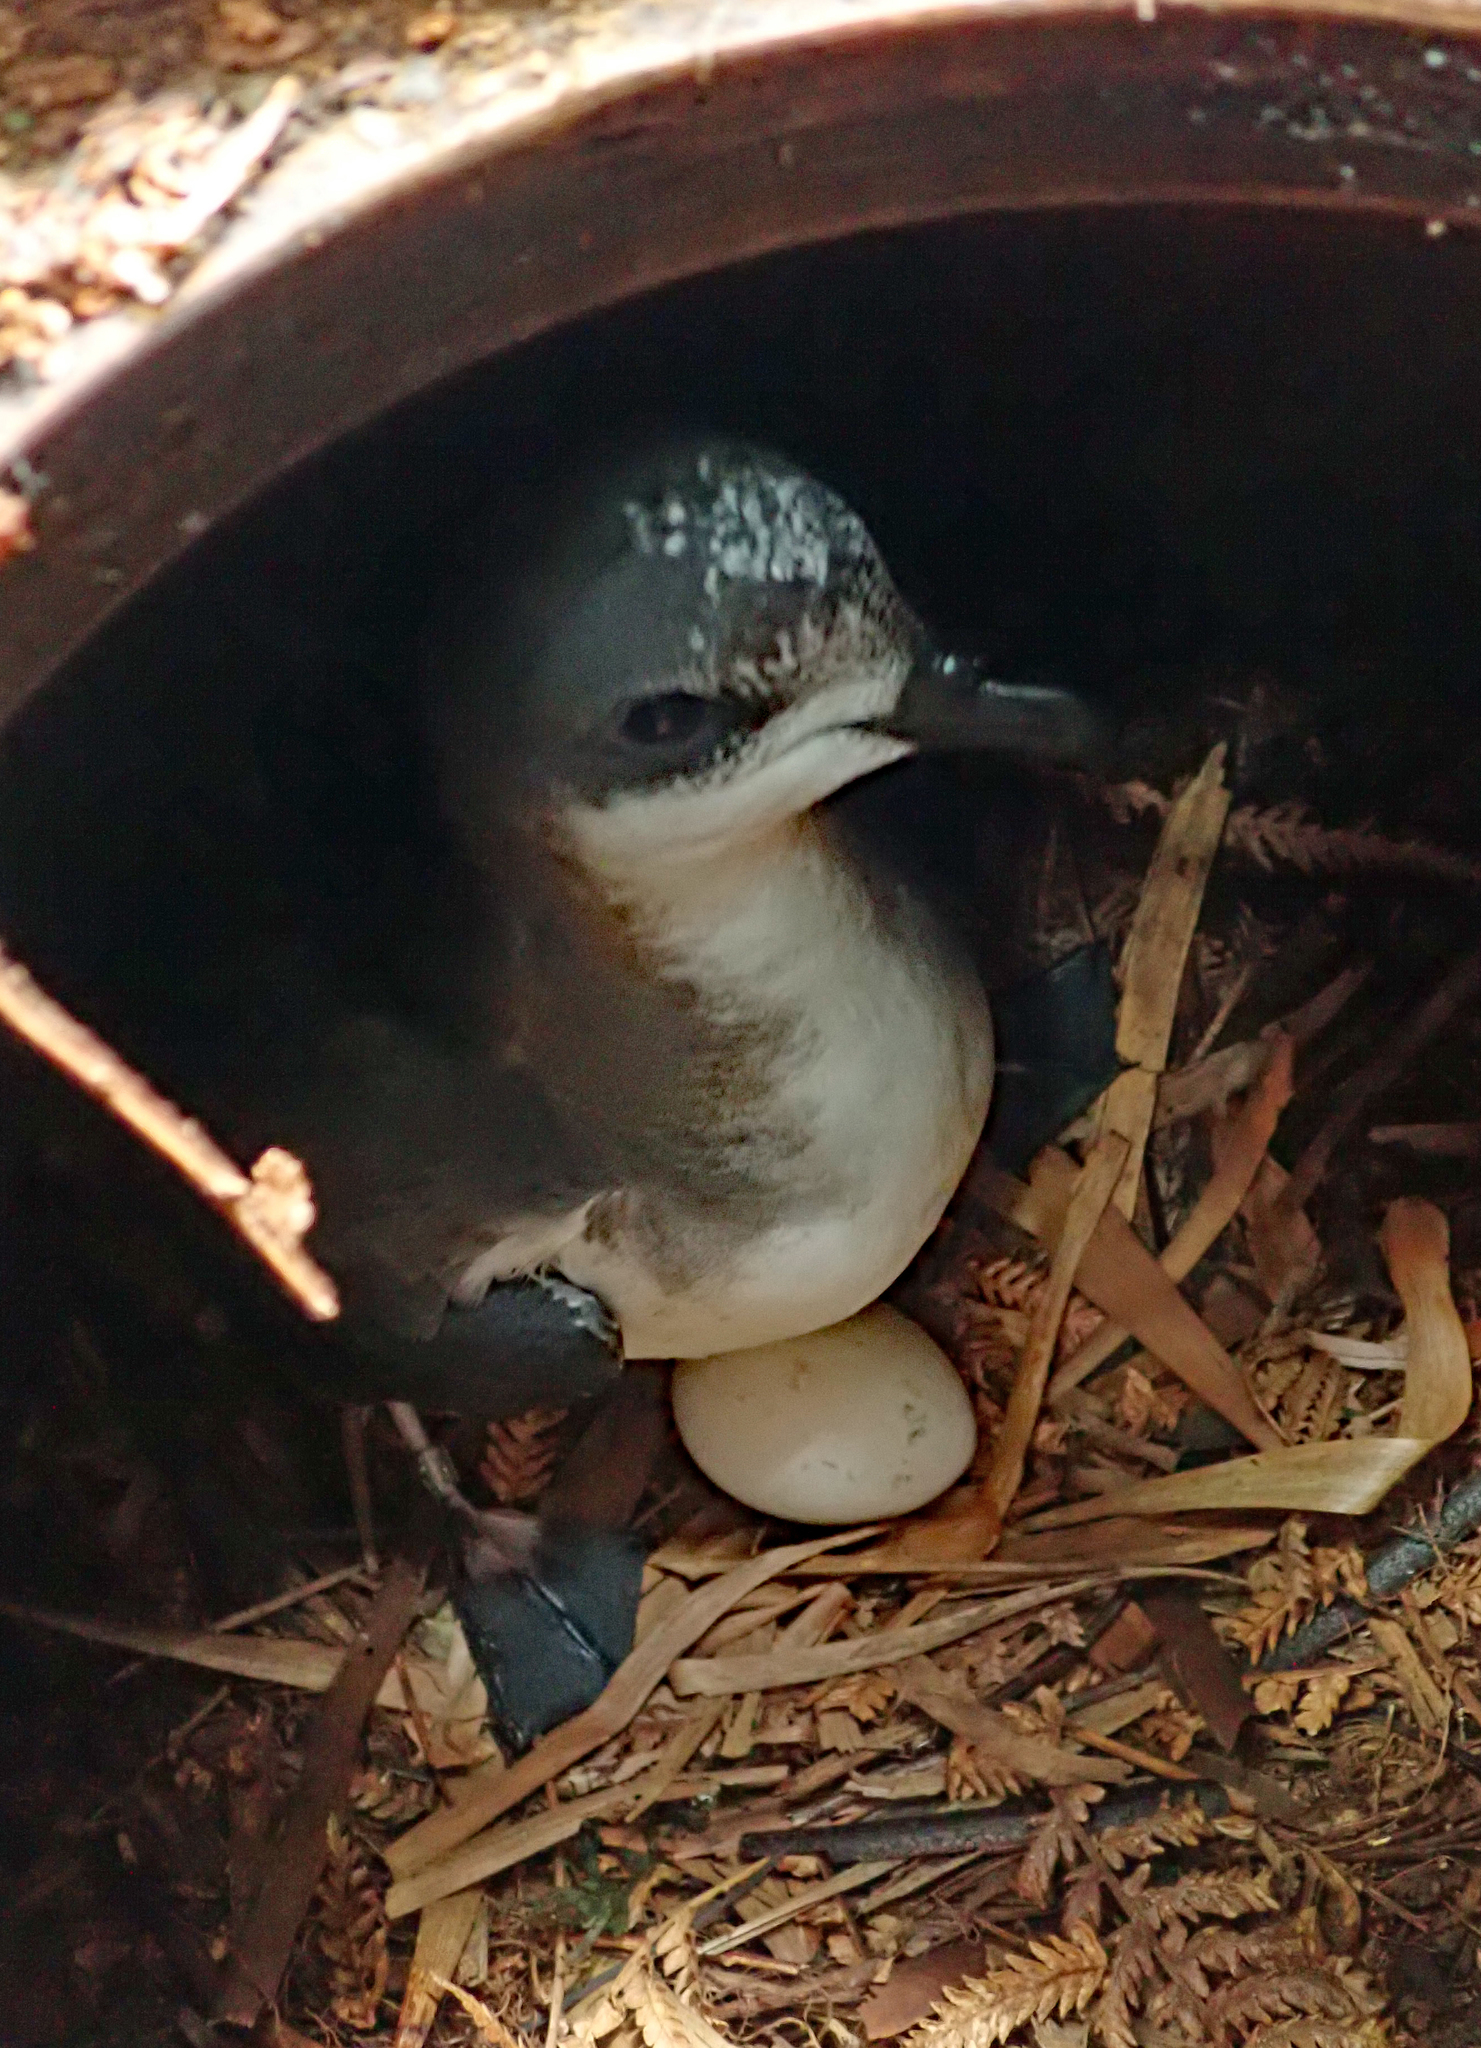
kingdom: Animalia
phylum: Chordata
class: Aves
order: Procellariiformes
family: Procellariidae
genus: Pterodroma
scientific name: Pterodroma axillaris
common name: Chatham petrel
